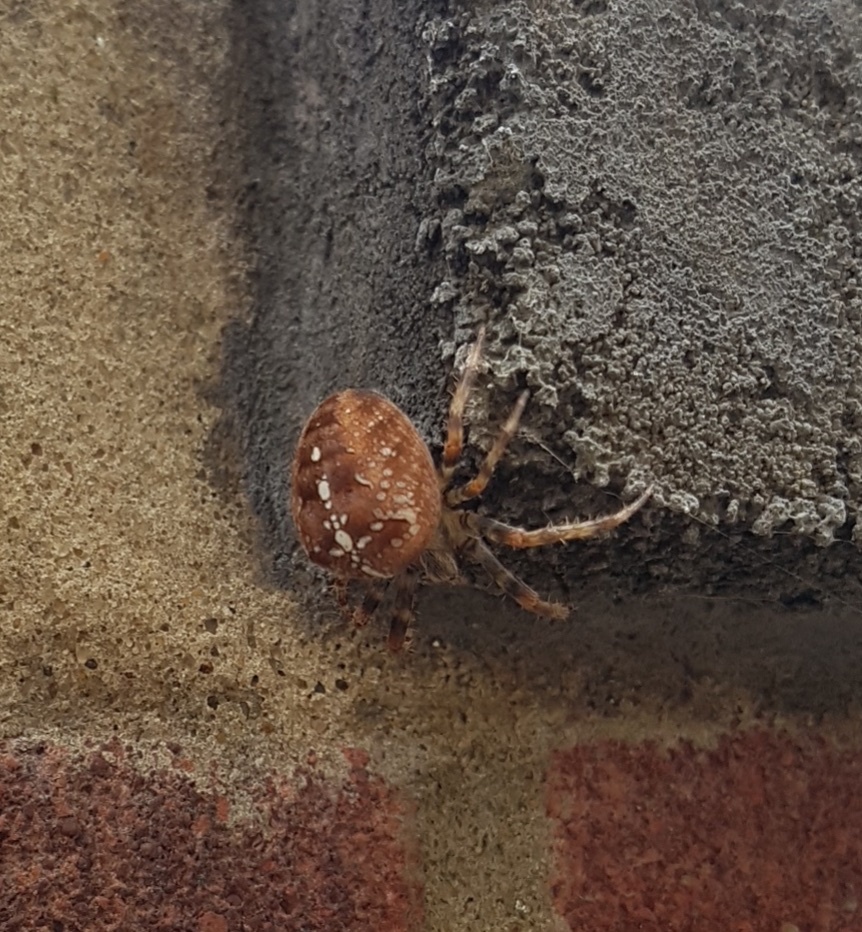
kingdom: Animalia
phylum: Arthropoda
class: Arachnida
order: Araneae
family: Araneidae
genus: Araneus
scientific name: Araneus diadematus
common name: Cross orbweaver
